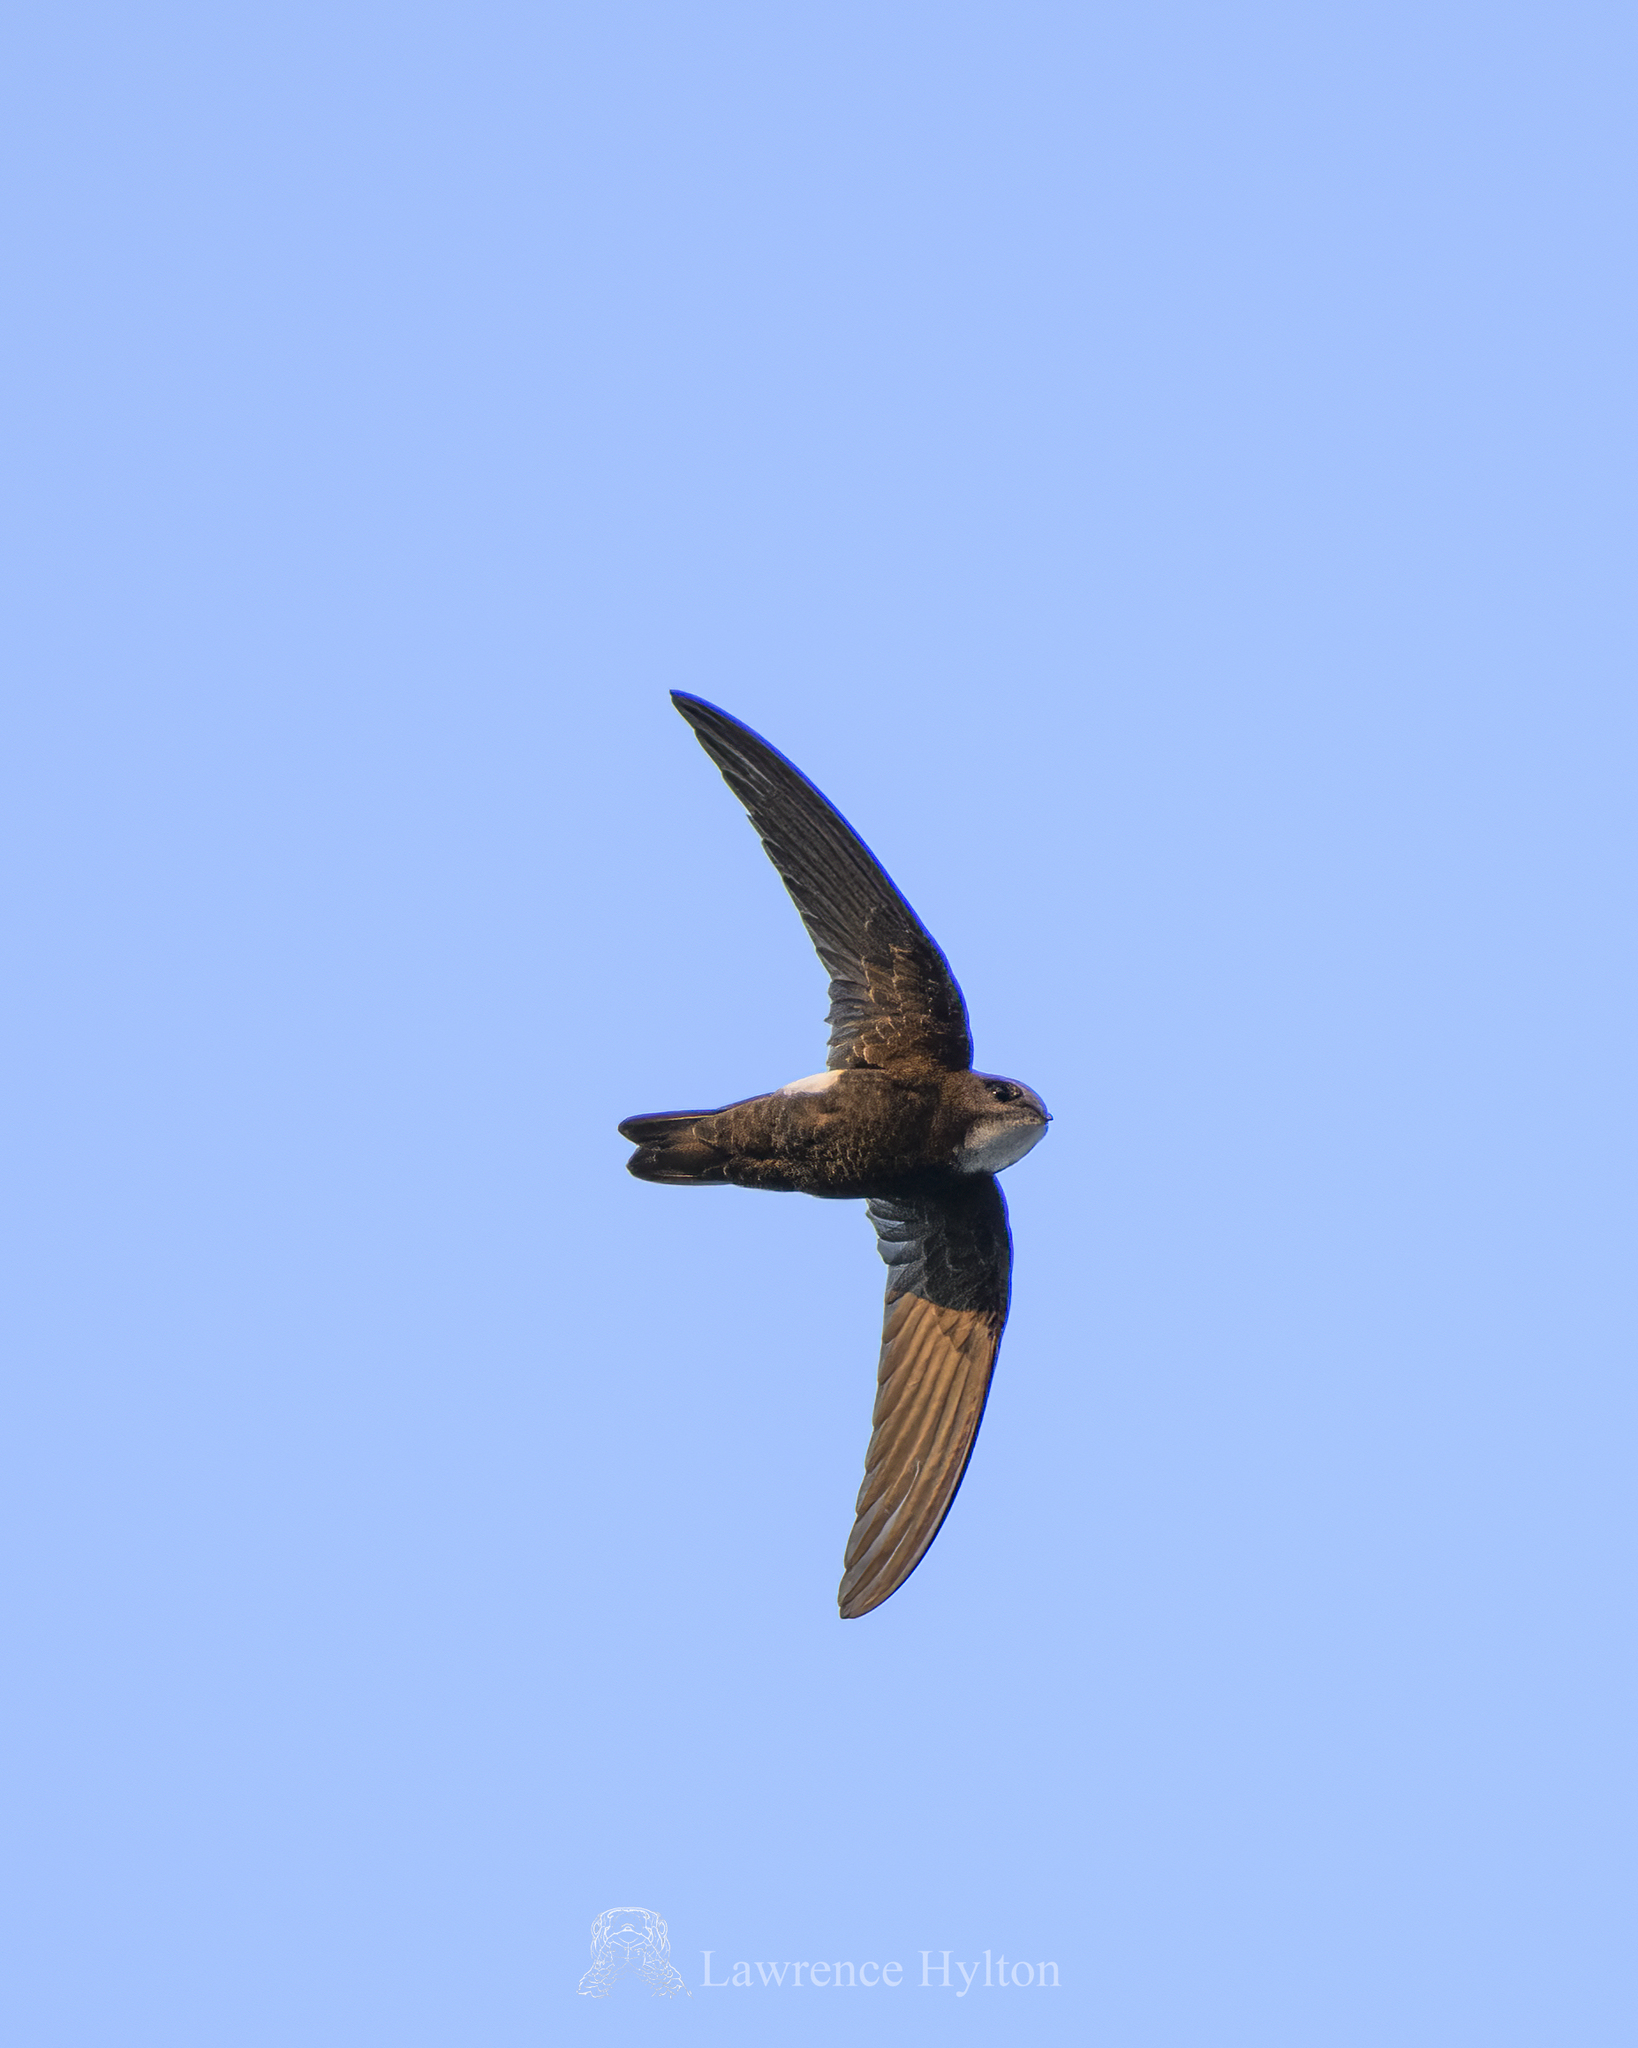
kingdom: Animalia
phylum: Chordata
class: Aves
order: Apodiformes
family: Apodidae
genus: Apus
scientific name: Apus nipalensis
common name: House swift
